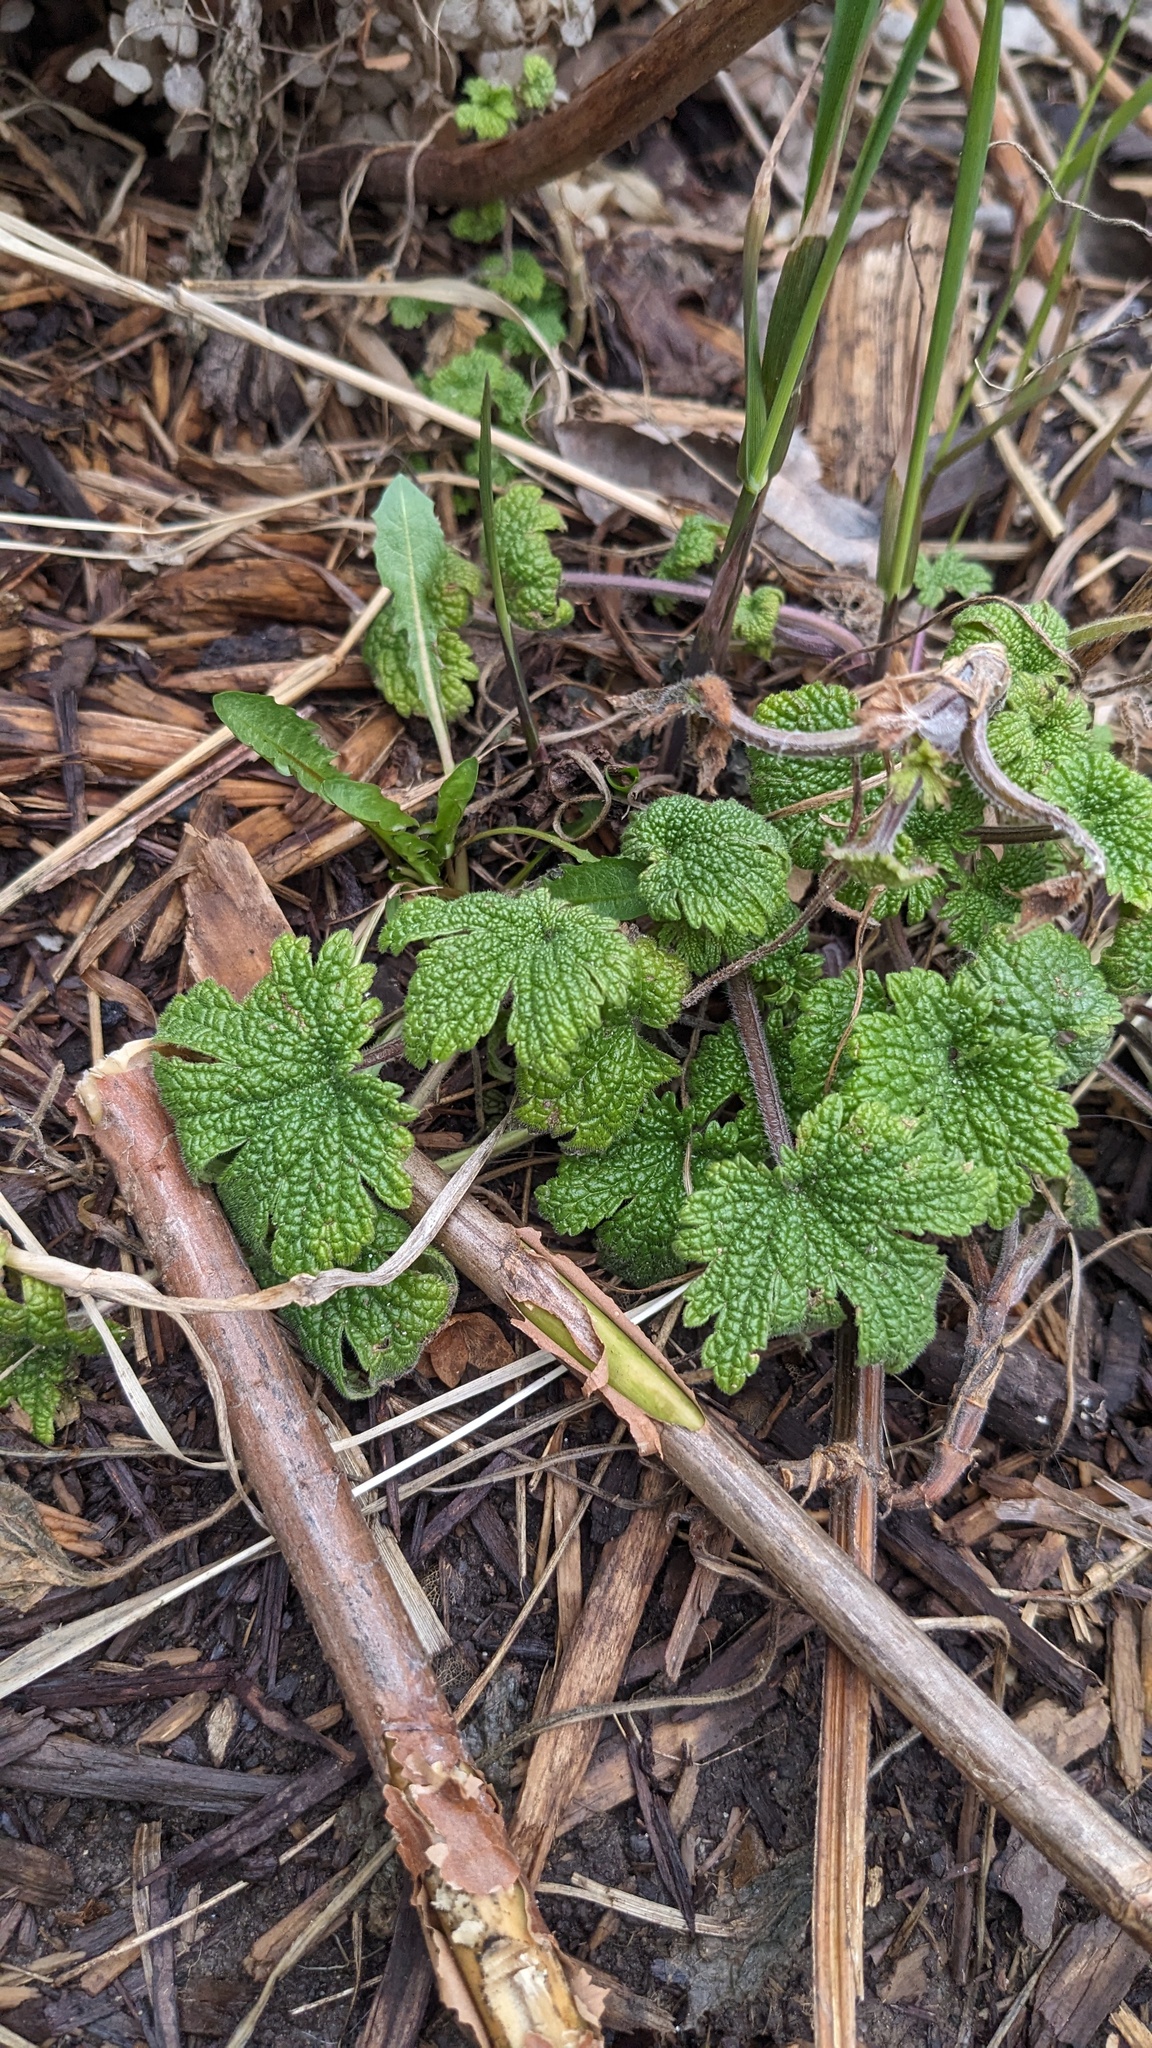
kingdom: Plantae
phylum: Tracheophyta
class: Magnoliopsida
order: Lamiales
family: Lamiaceae
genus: Leonurus
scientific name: Leonurus cardiaca
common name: Motherwort
